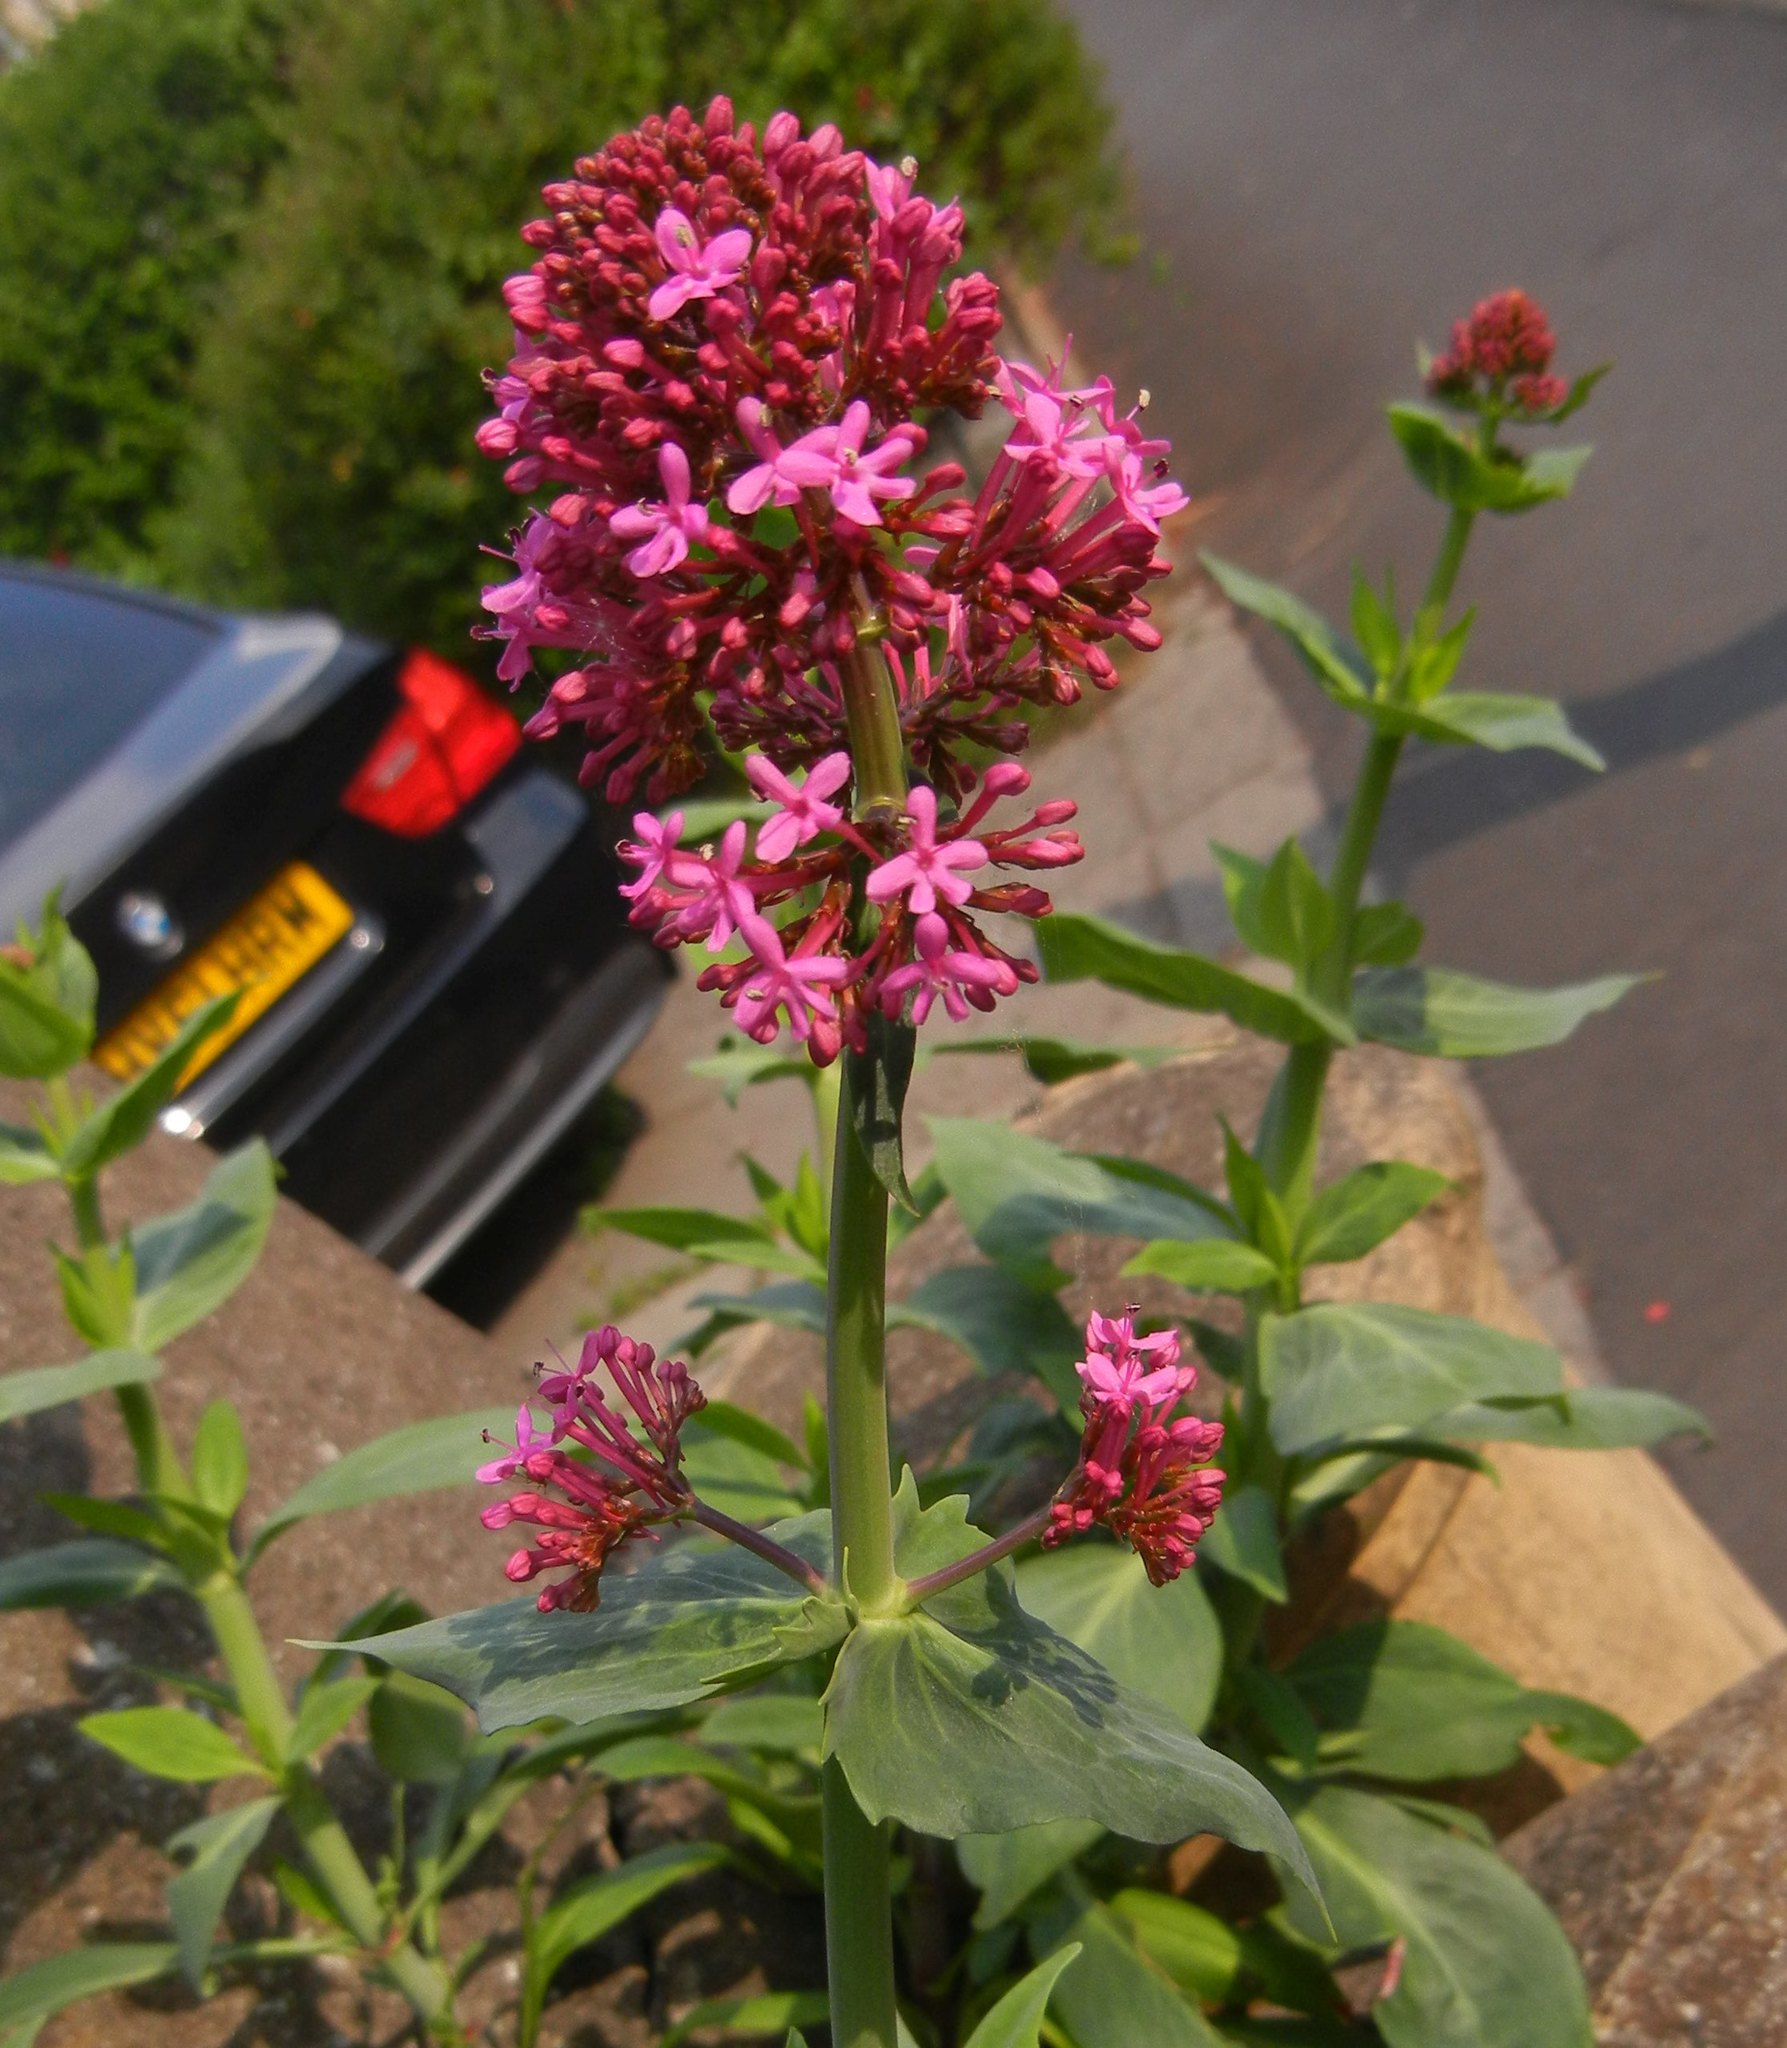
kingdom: Plantae
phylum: Tracheophyta
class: Magnoliopsida
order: Dipsacales
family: Caprifoliaceae
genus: Centranthus
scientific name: Centranthus ruber
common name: Red valerian
